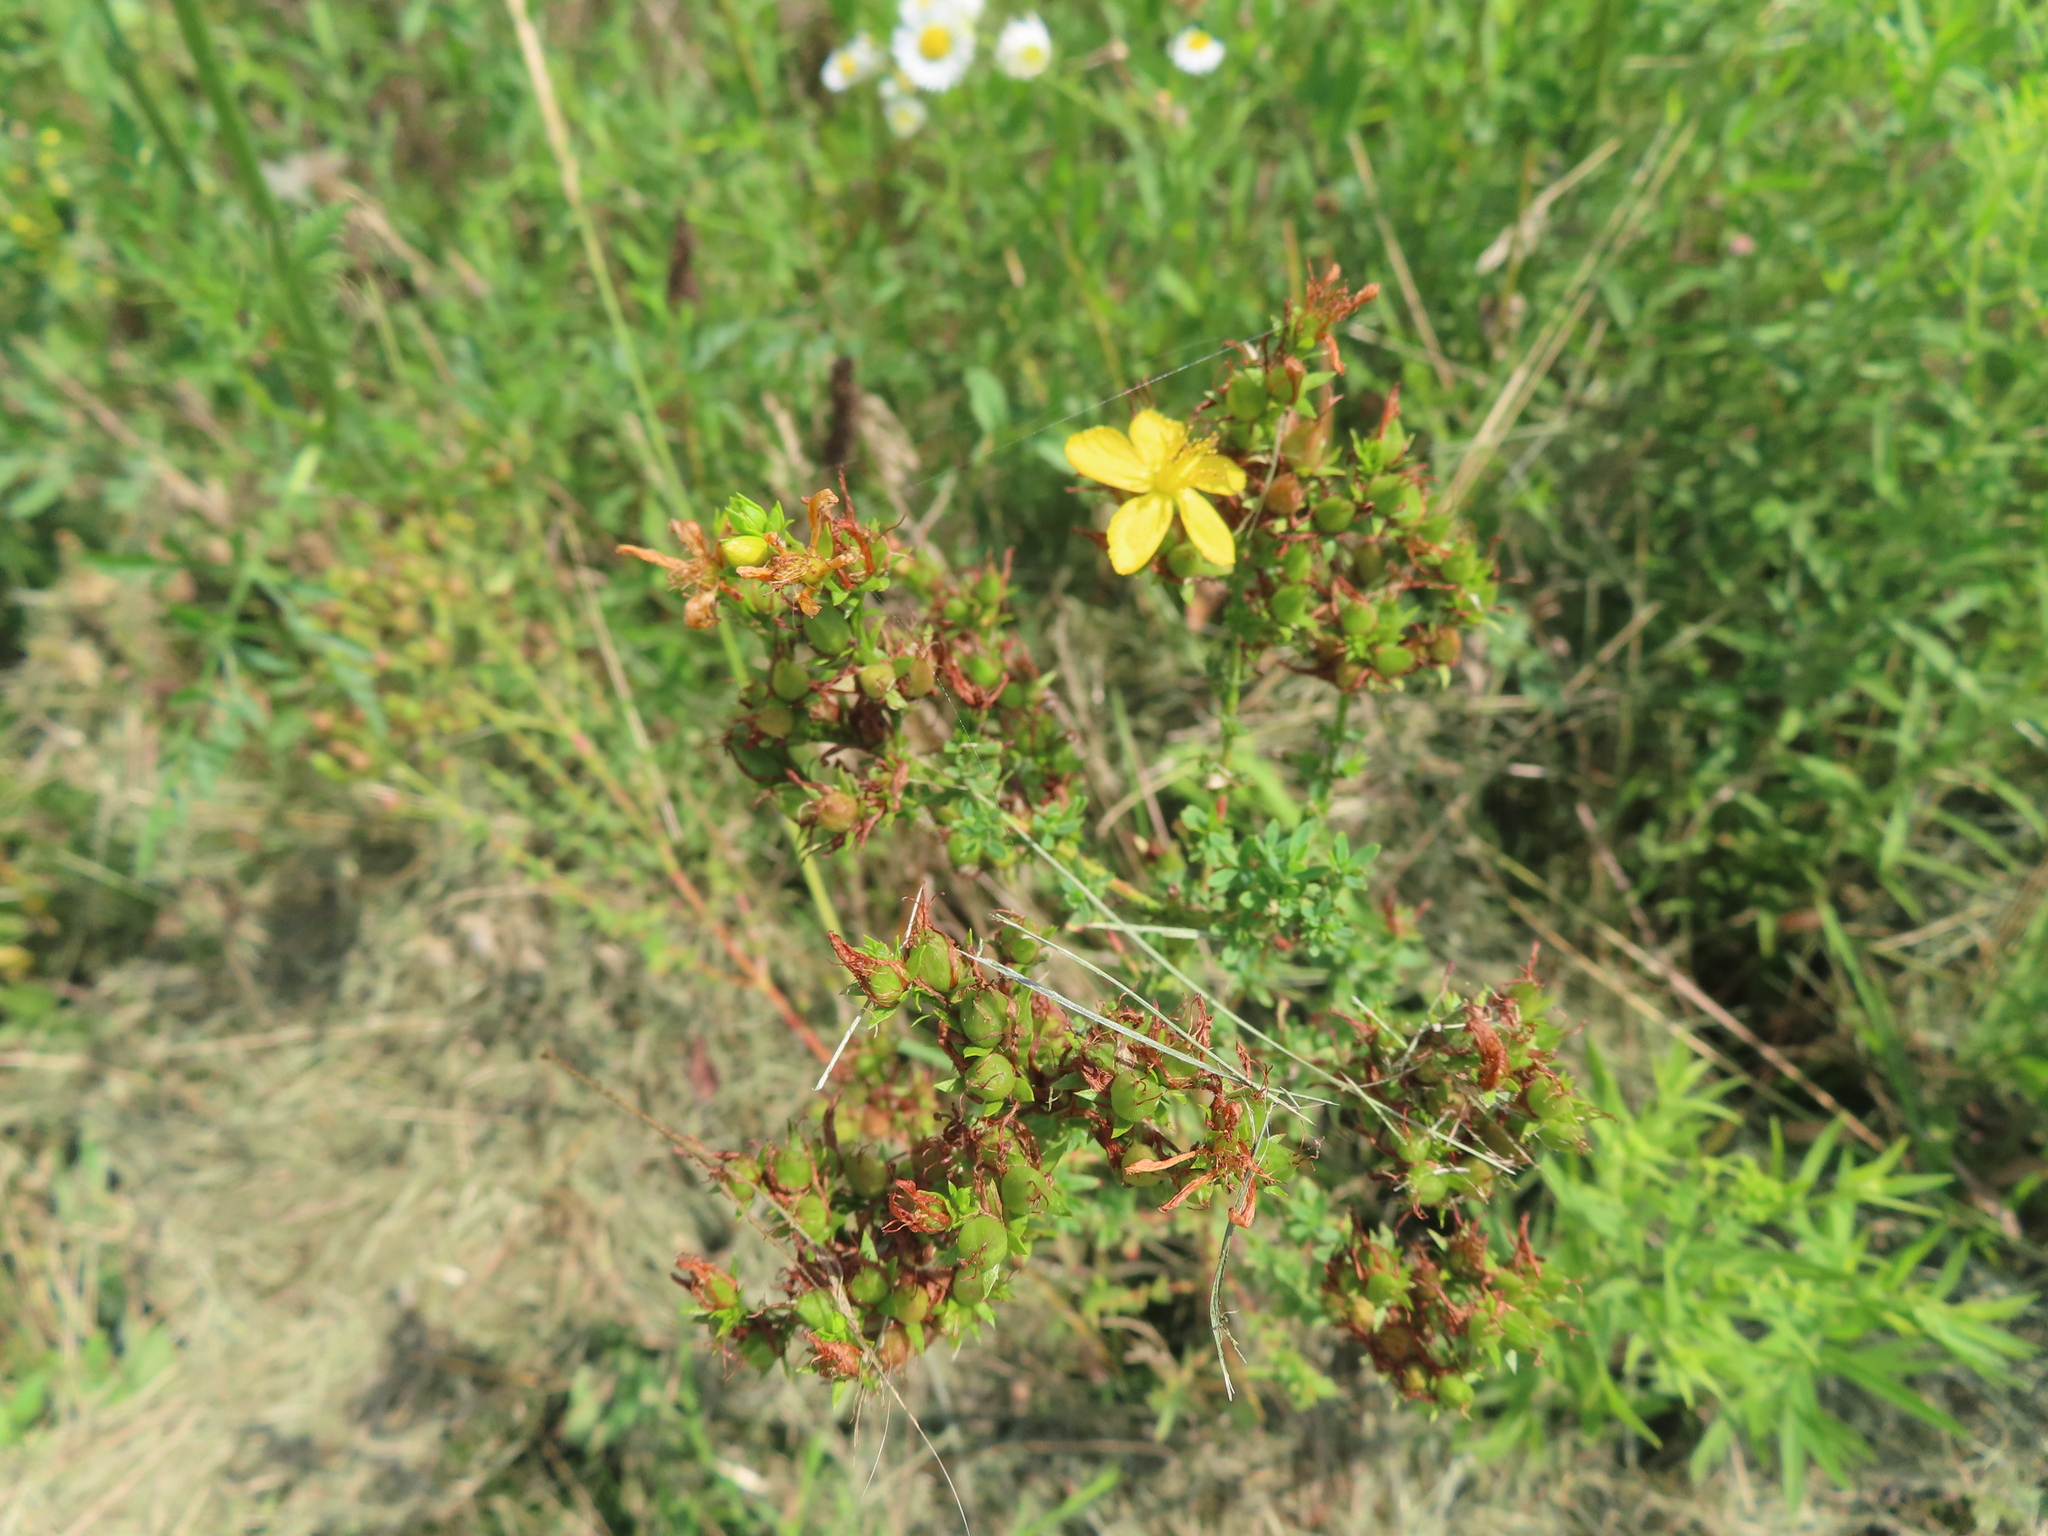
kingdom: Plantae
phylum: Tracheophyta
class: Magnoliopsida
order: Malpighiales
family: Hypericaceae
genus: Hypericum
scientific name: Hypericum perforatum
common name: Common st. johnswort
